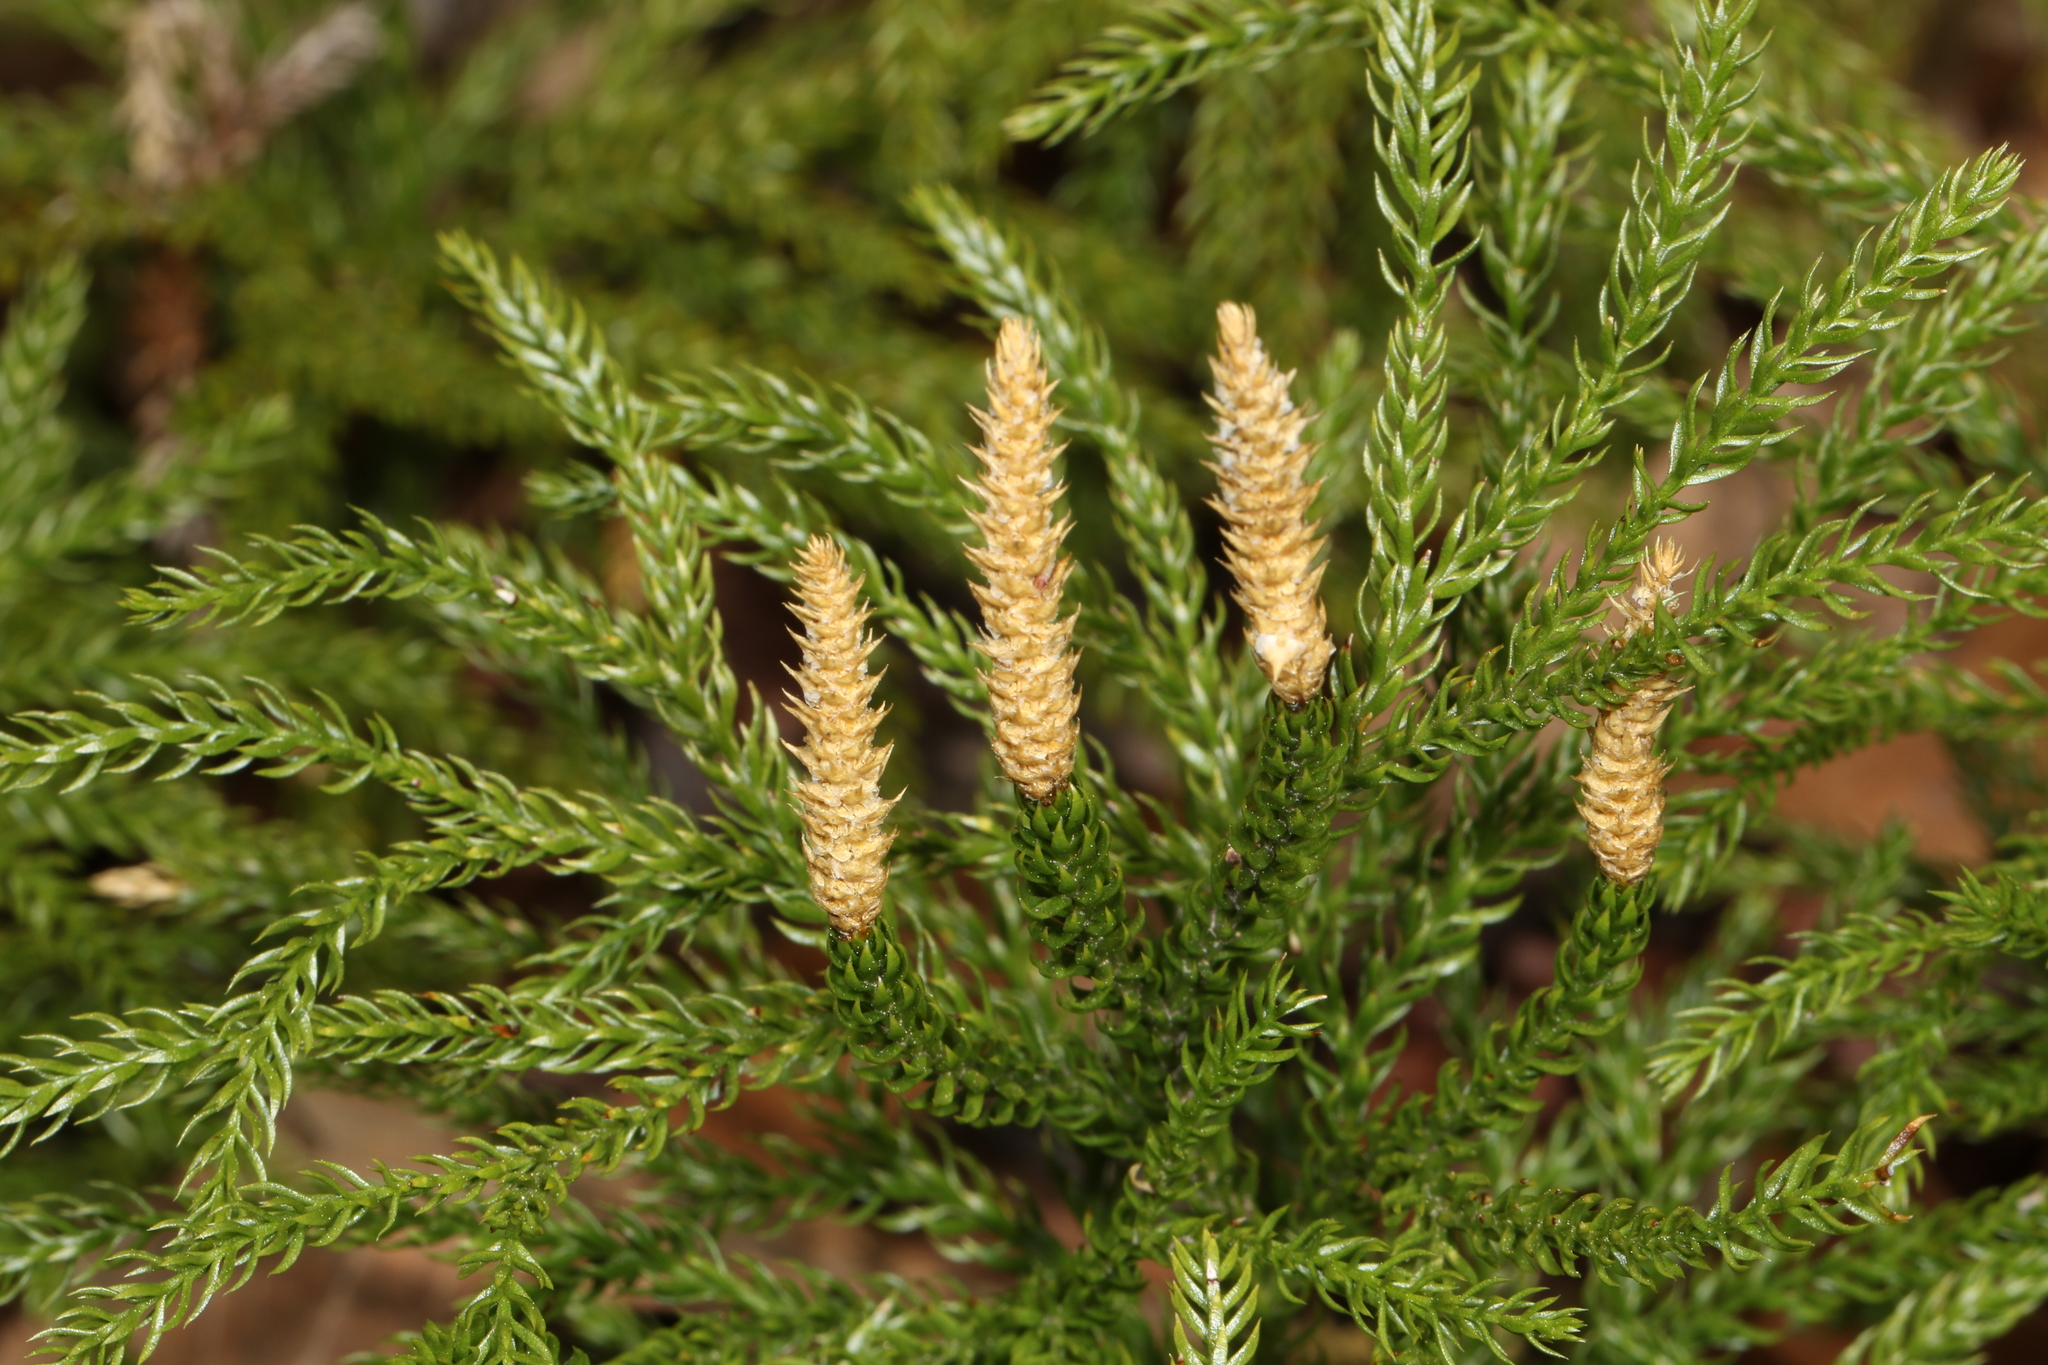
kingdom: Plantae
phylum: Tracheophyta
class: Lycopodiopsida
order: Lycopodiales
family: Lycopodiaceae
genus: Dendrolycopodium
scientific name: Dendrolycopodium obscurum
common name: Common ground-pine
